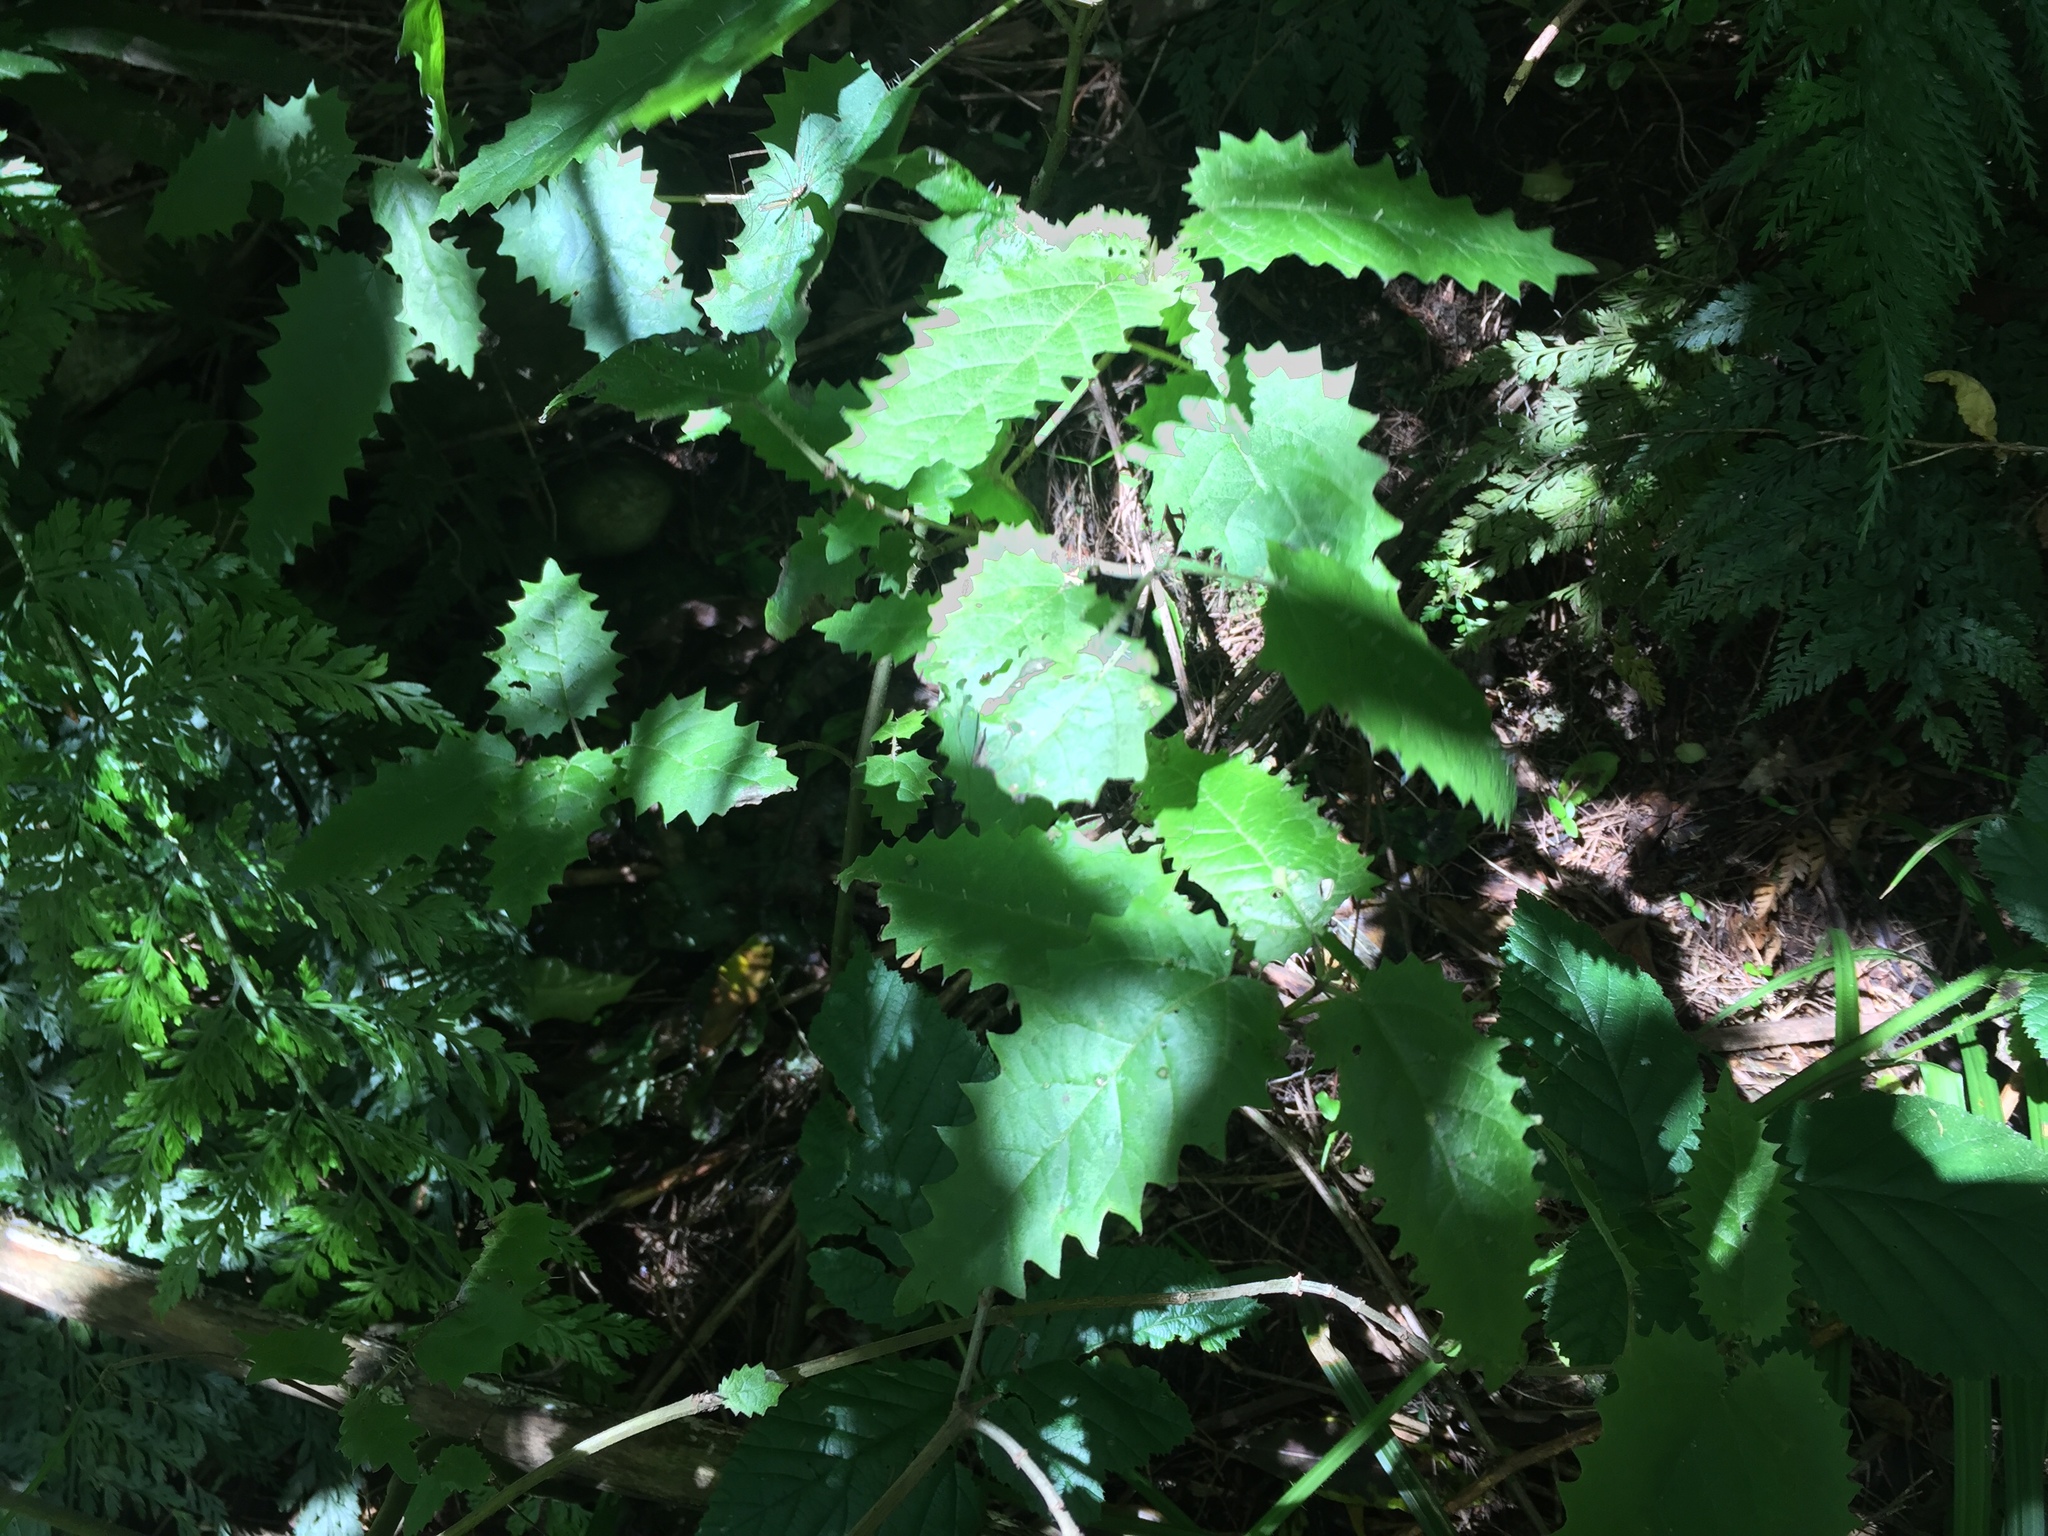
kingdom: Plantae
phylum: Tracheophyta
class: Magnoliopsida
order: Rosales
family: Urticaceae
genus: Urtica
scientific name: Urtica ferox
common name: Tree nettle
